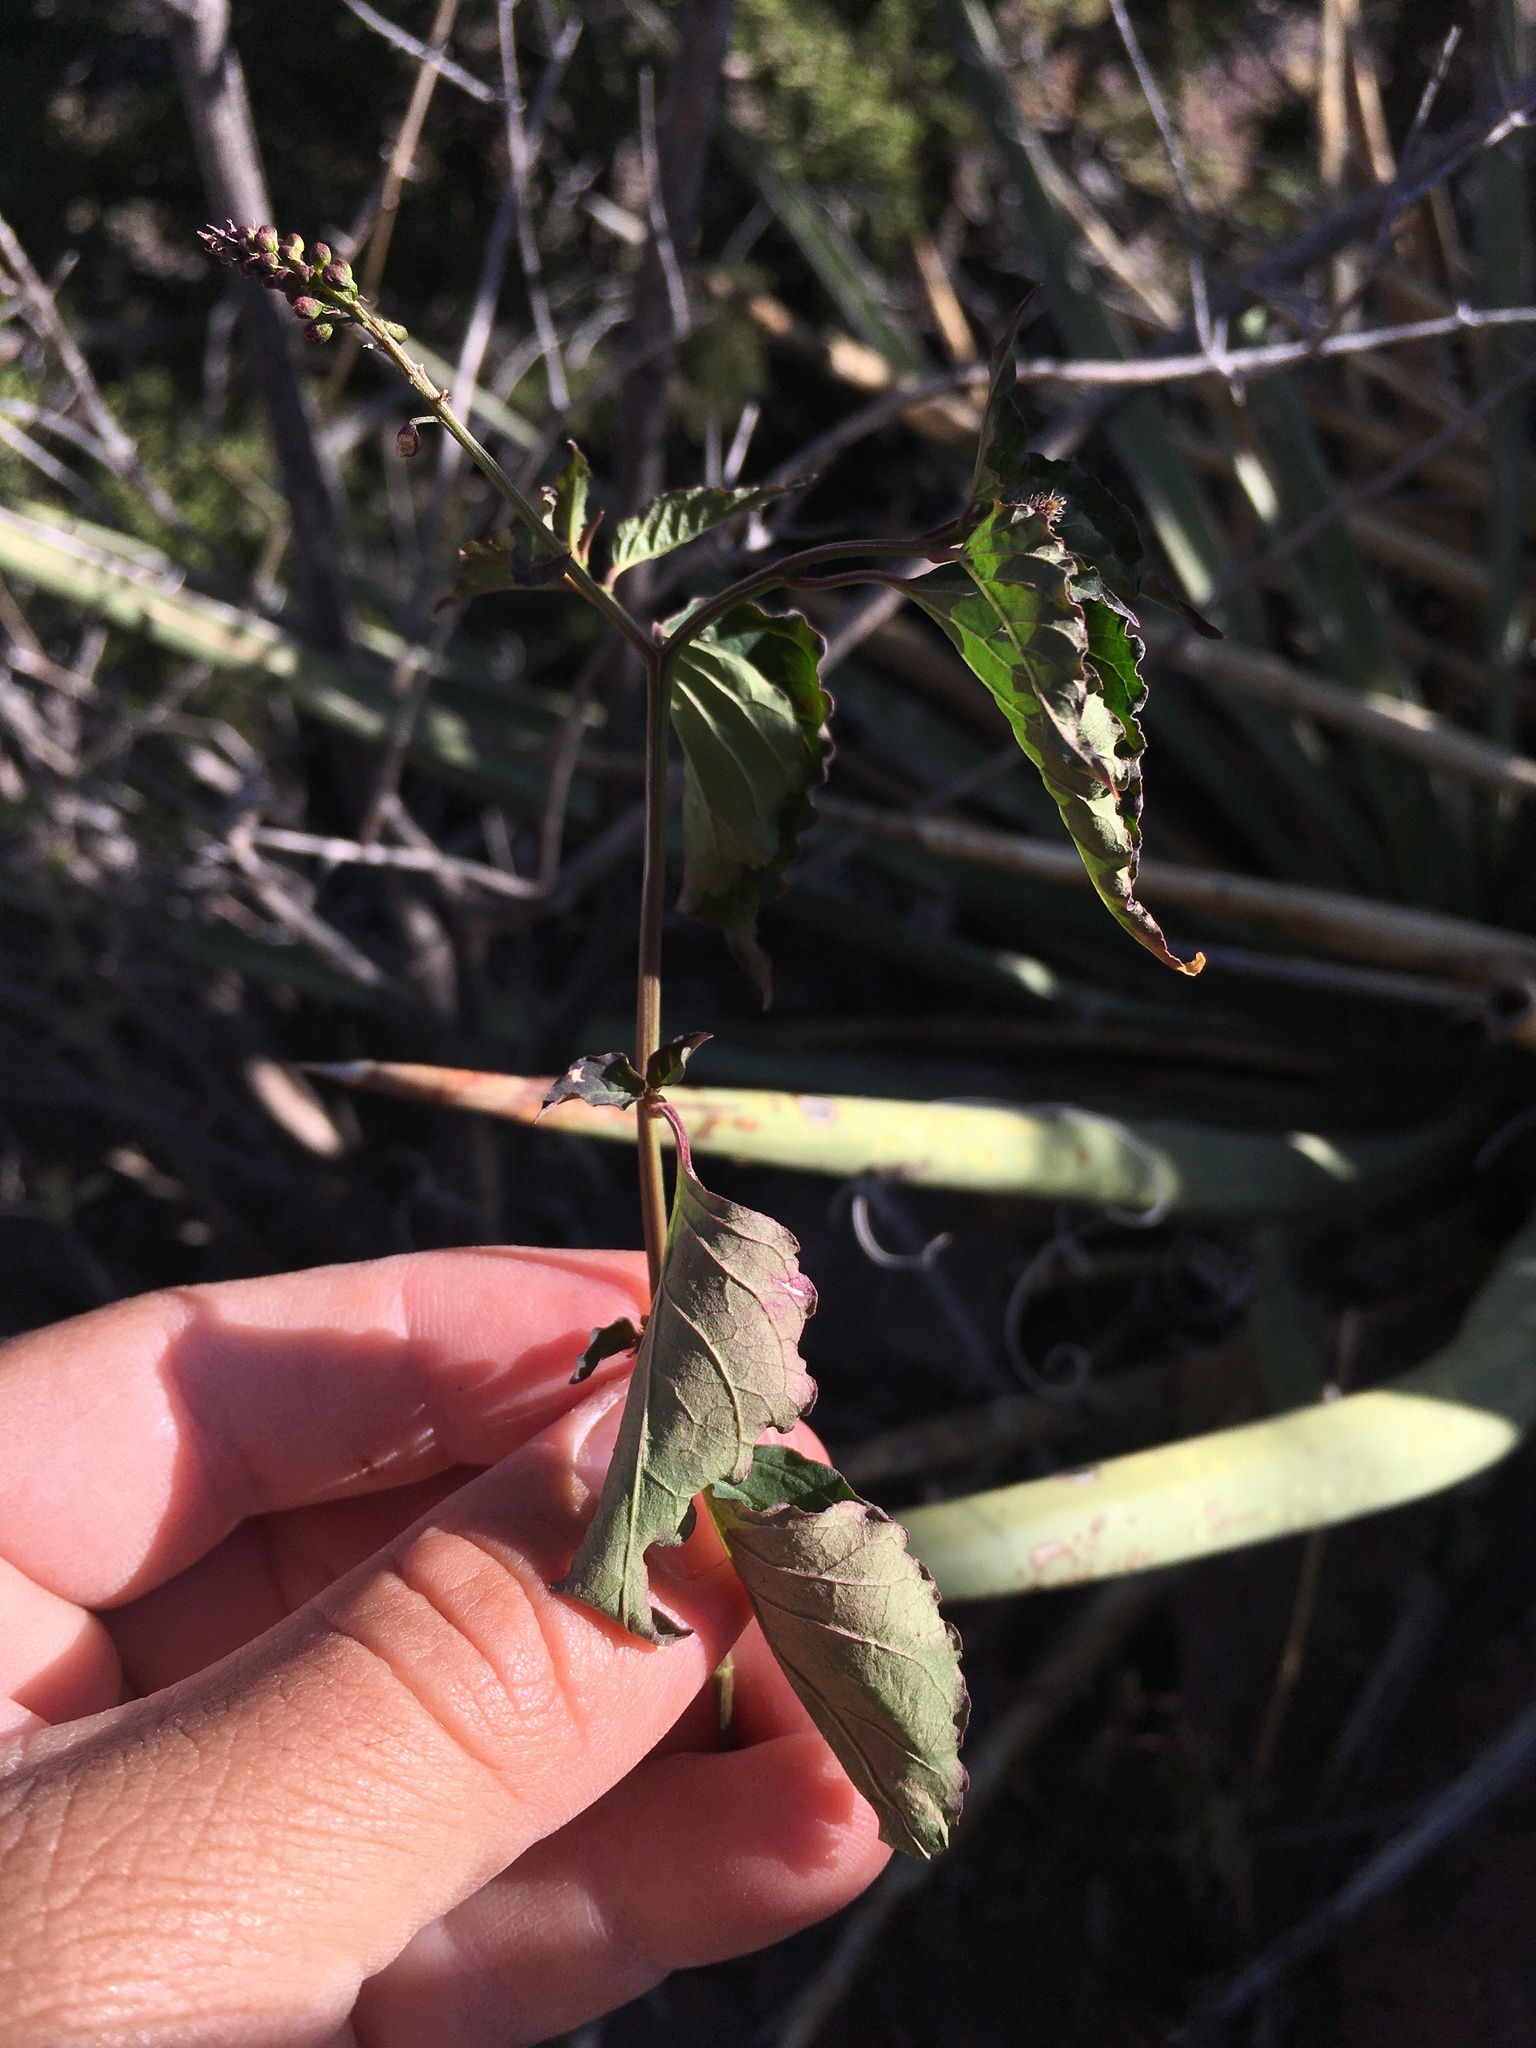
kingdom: Plantae
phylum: Tracheophyta
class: Magnoliopsida
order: Caryophyllales
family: Phytolaccaceae
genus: Rivina
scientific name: Rivina humilis
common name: Rougeplant
